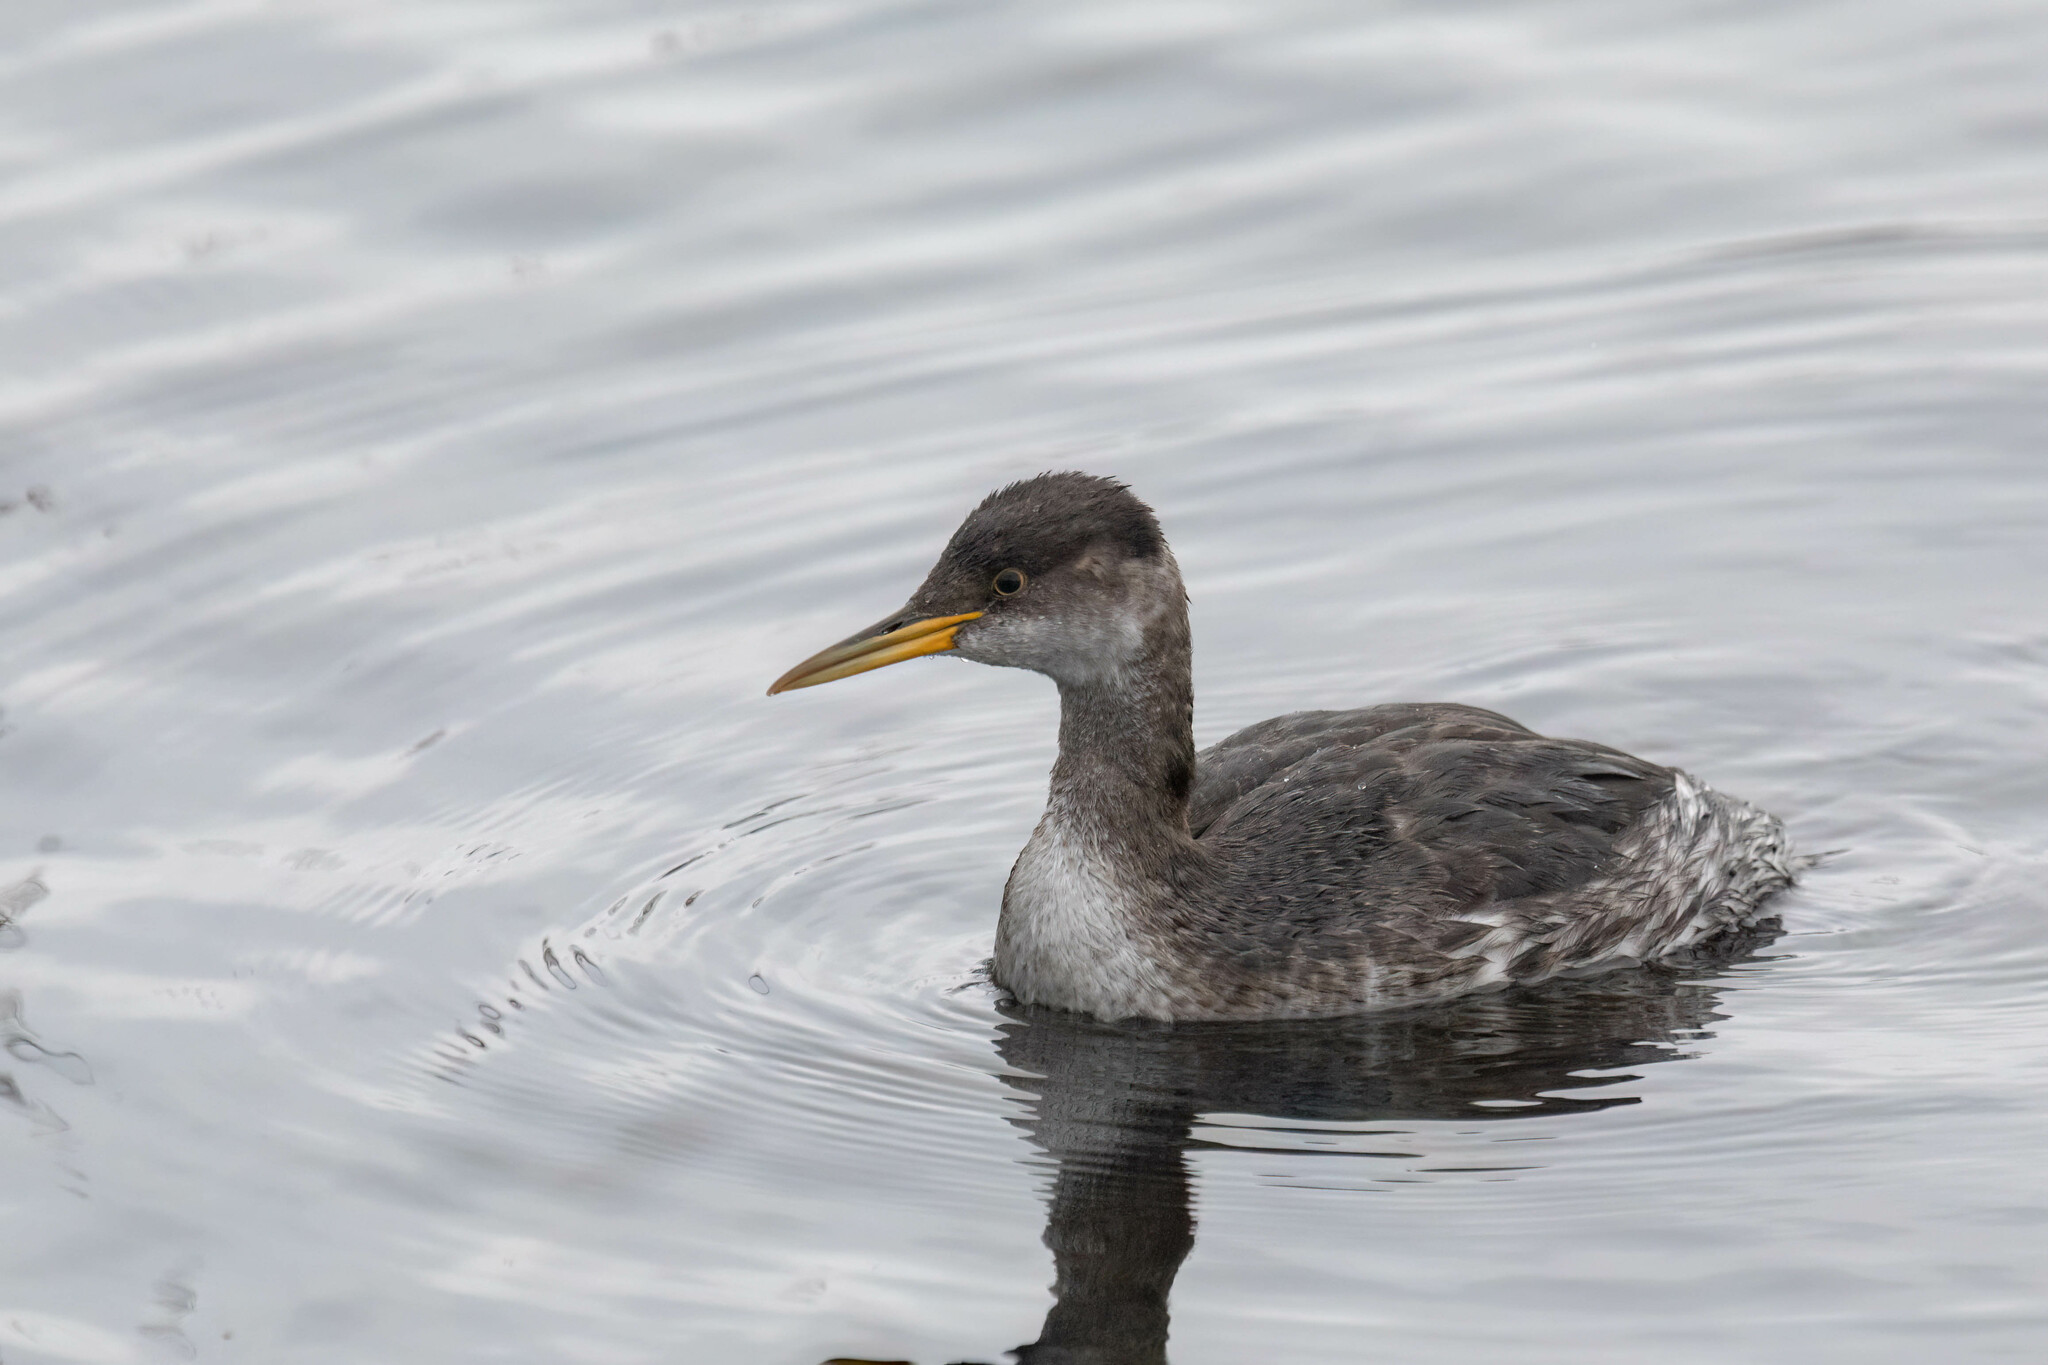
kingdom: Animalia
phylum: Chordata
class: Aves
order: Podicipediformes
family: Podicipedidae
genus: Podiceps
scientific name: Podiceps grisegena
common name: Red-necked grebe
